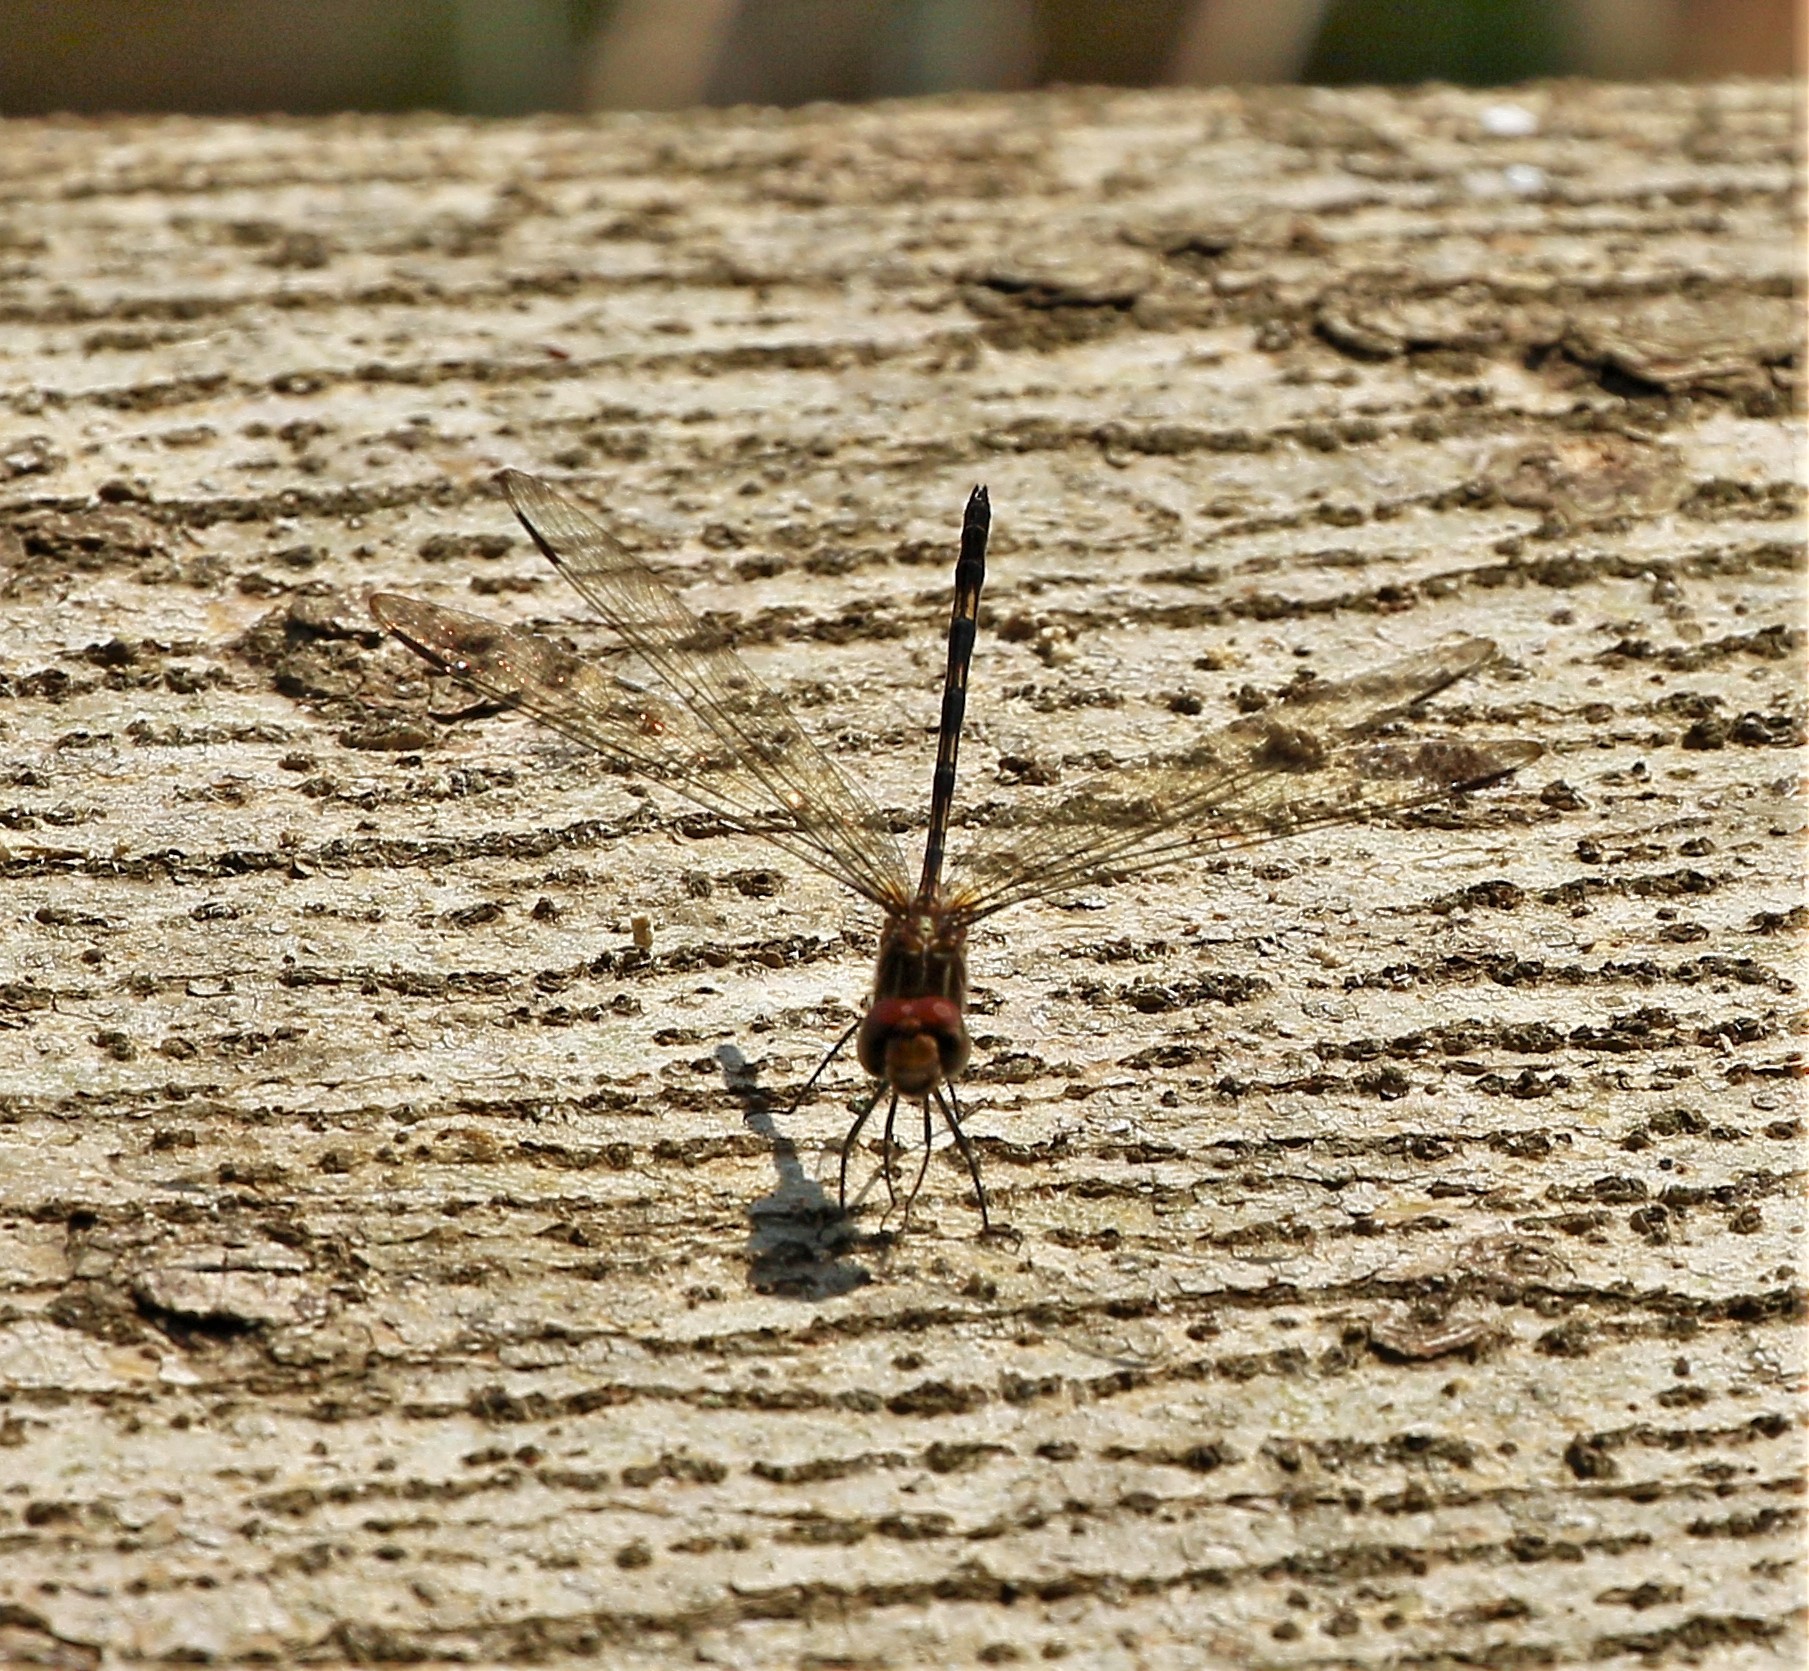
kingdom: Animalia
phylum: Arthropoda
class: Insecta
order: Odonata
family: Libellulidae
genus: Dythemis
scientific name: Dythemis sterilis
